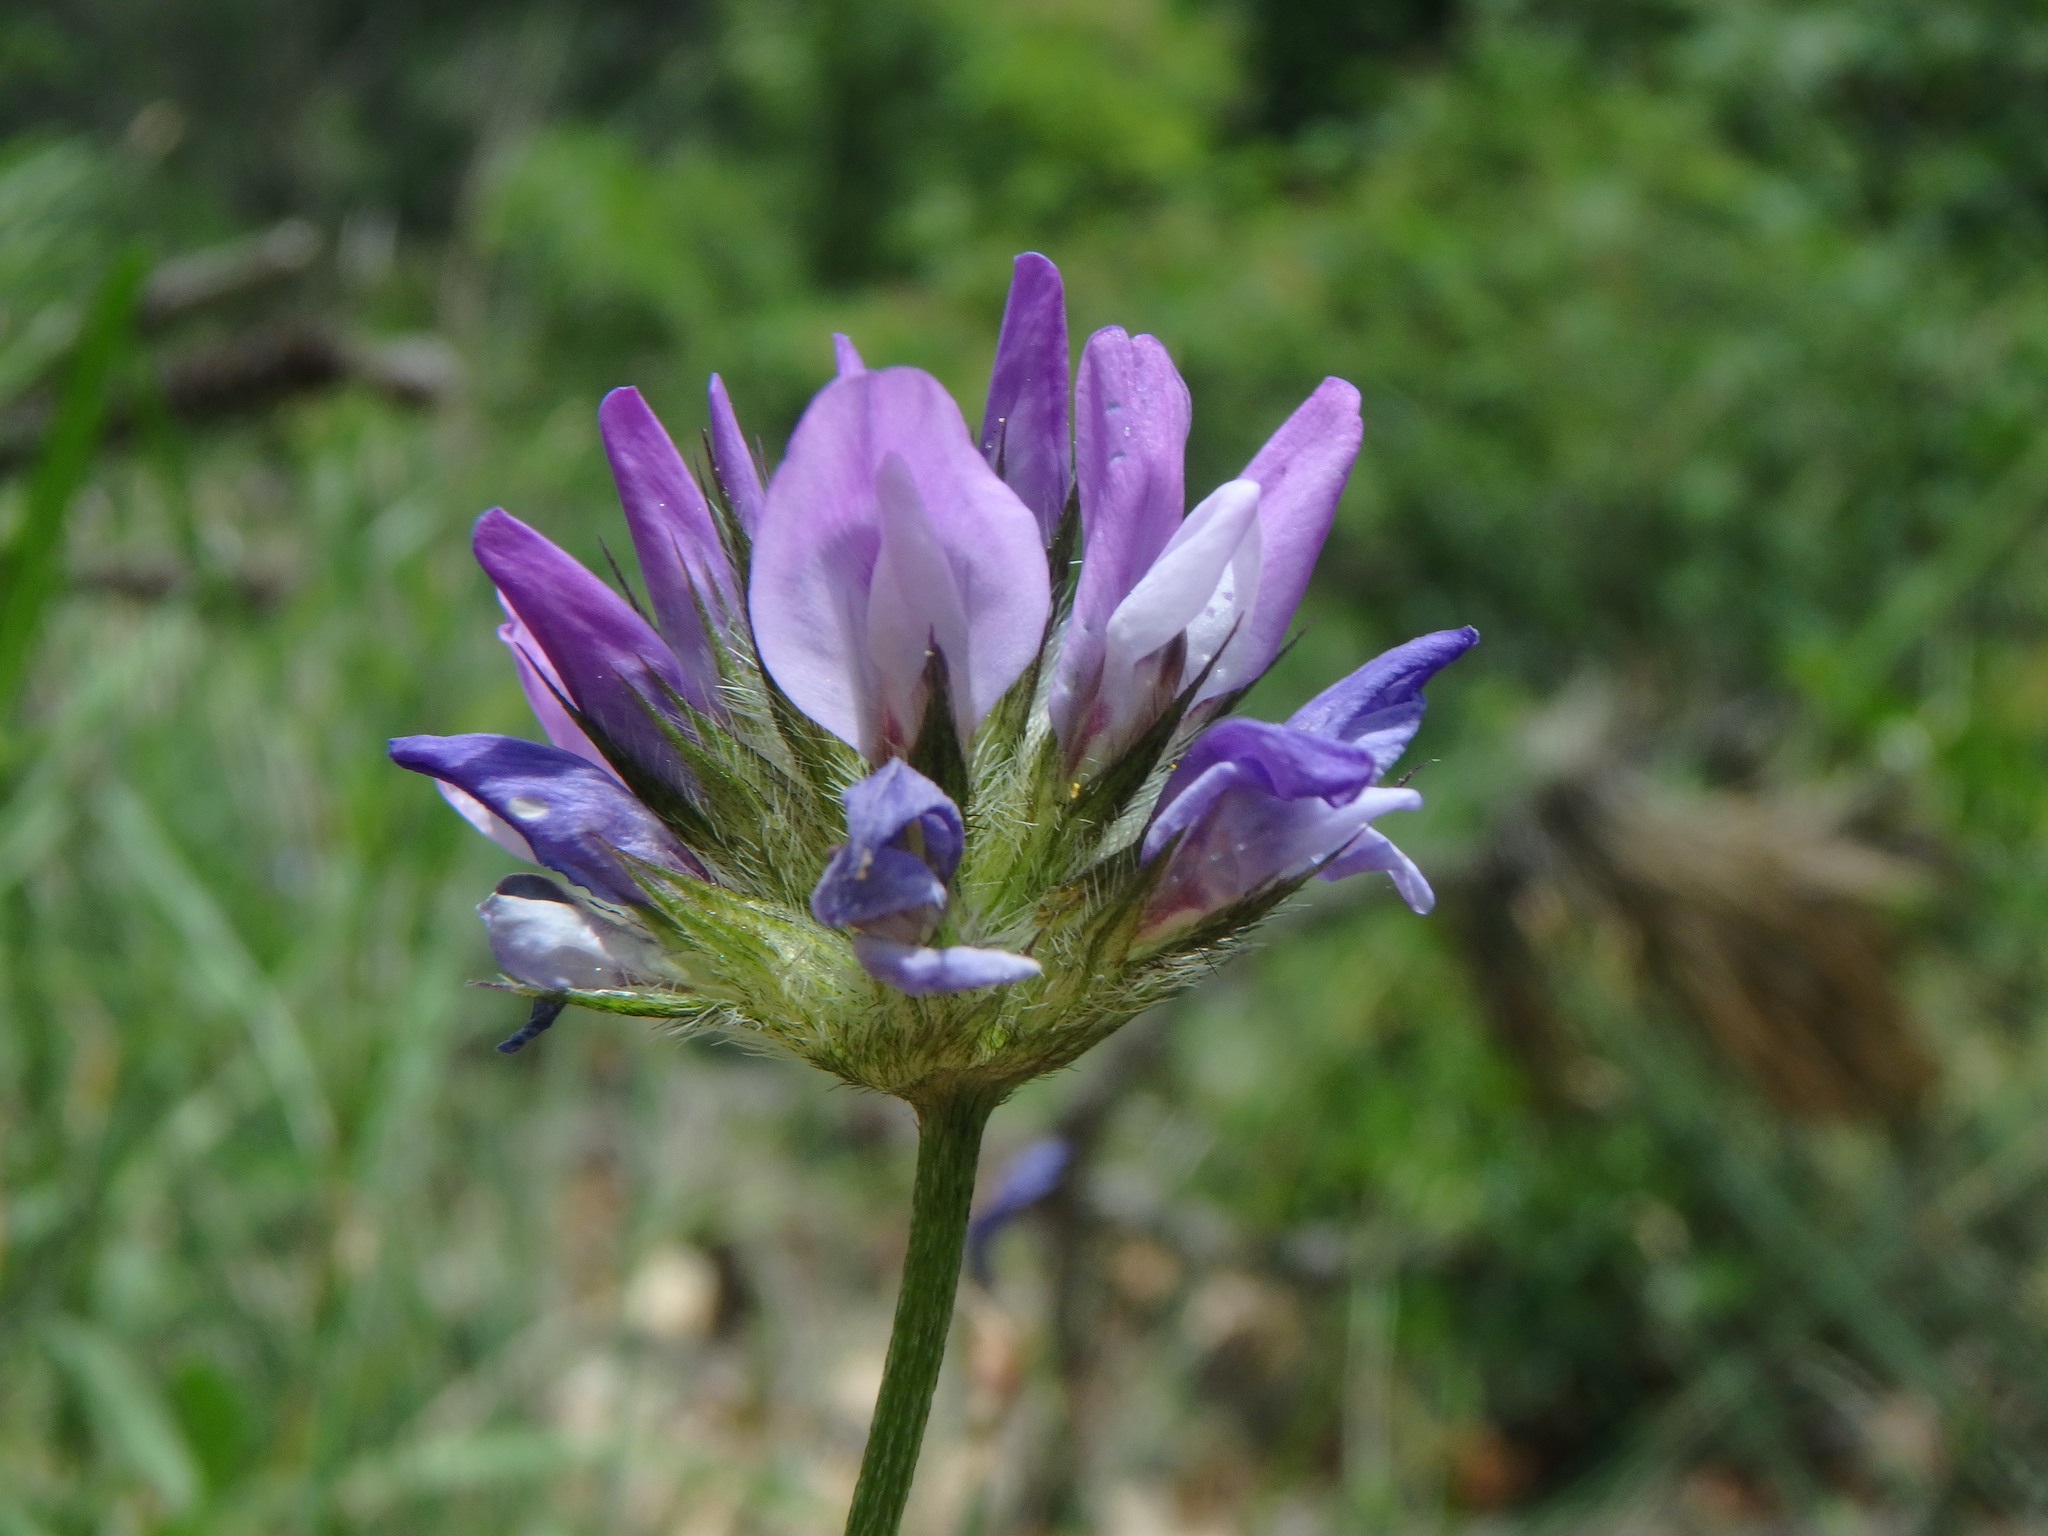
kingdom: Plantae
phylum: Tracheophyta
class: Magnoliopsida
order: Fabales
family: Fabaceae
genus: Bituminaria
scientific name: Bituminaria bituminosa
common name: Arabian pea
